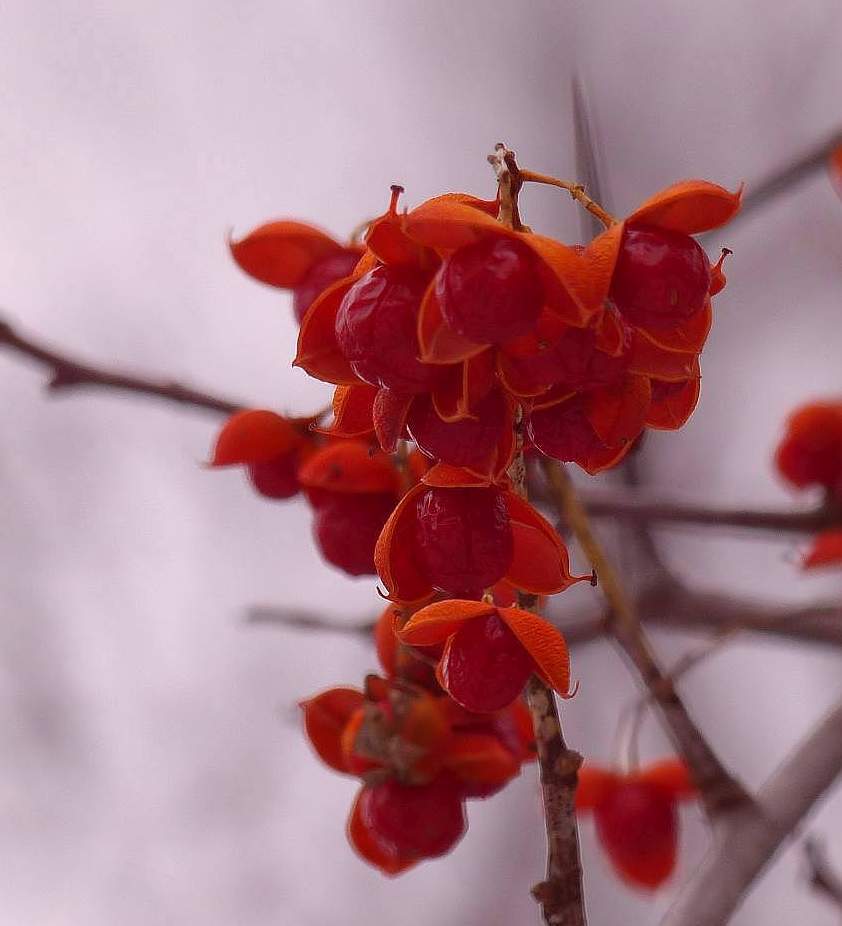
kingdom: Plantae
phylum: Tracheophyta
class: Magnoliopsida
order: Celastrales
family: Celastraceae
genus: Celastrus
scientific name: Celastrus scandens
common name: American bittersweet
